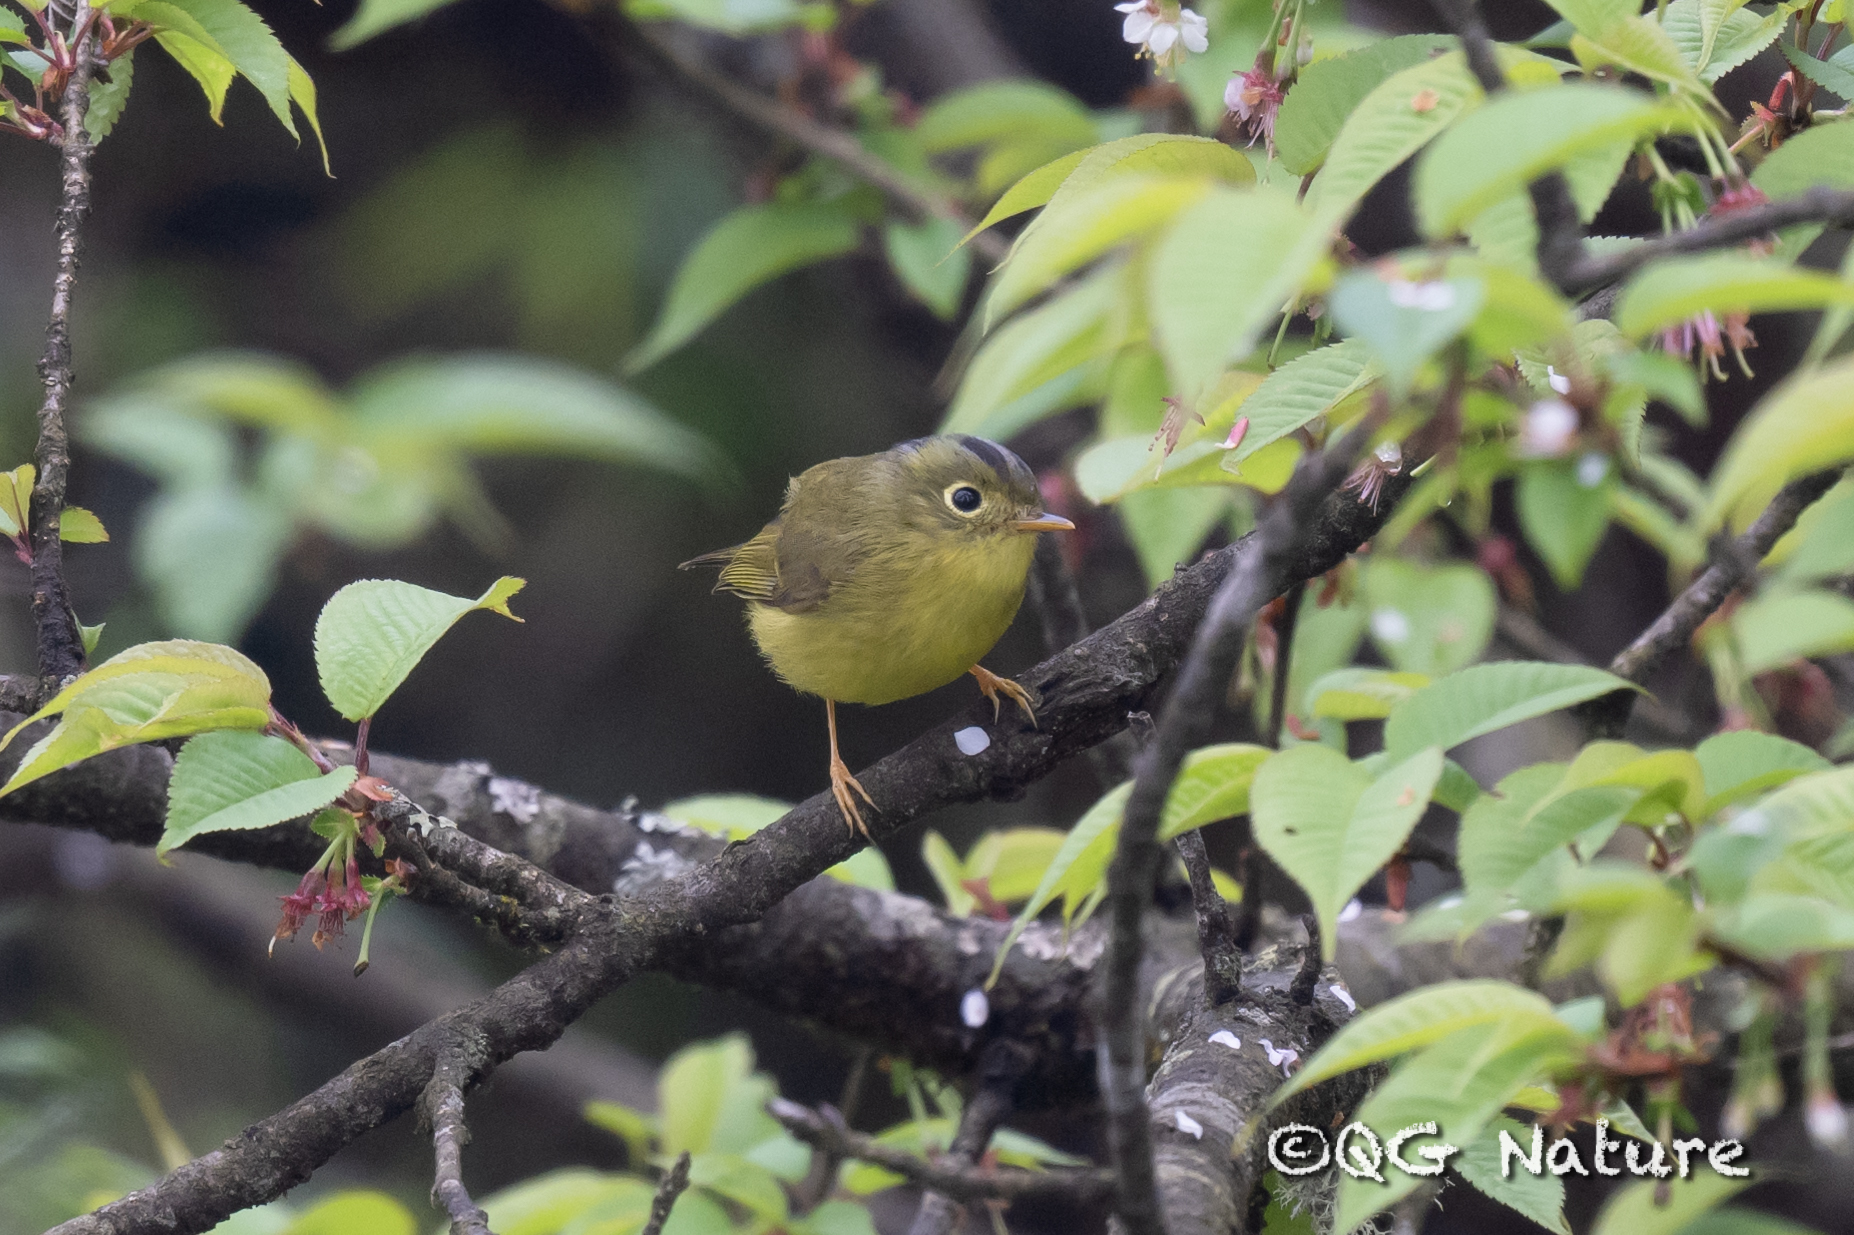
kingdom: Animalia
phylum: Chordata
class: Aves
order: Passeriformes
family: Phylloscopidae
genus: Seicercus
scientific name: Seicercus valentini
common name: Bianchi's warbler
